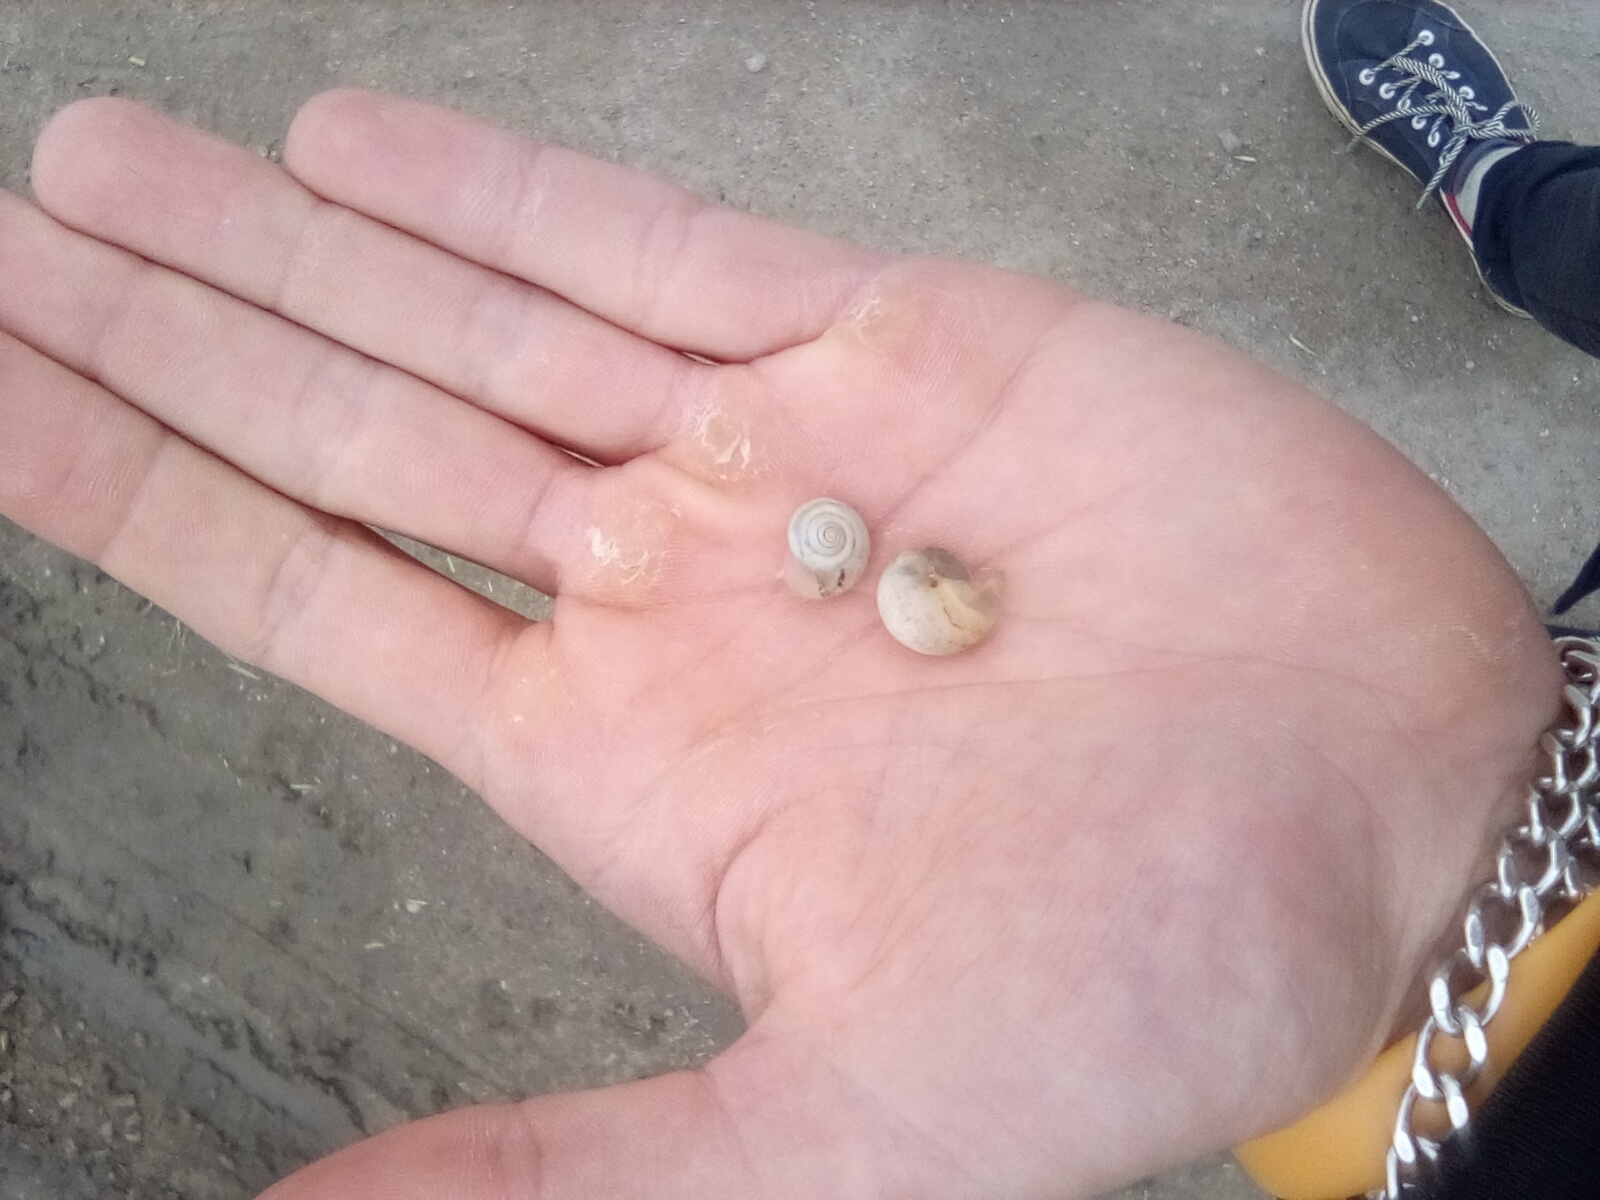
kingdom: Animalia
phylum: Mollusca
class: Gastropoda
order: Stylommatophora
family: Hygromiidae
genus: Monacha
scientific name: Monacha cartusiana
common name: Carthusian snail
